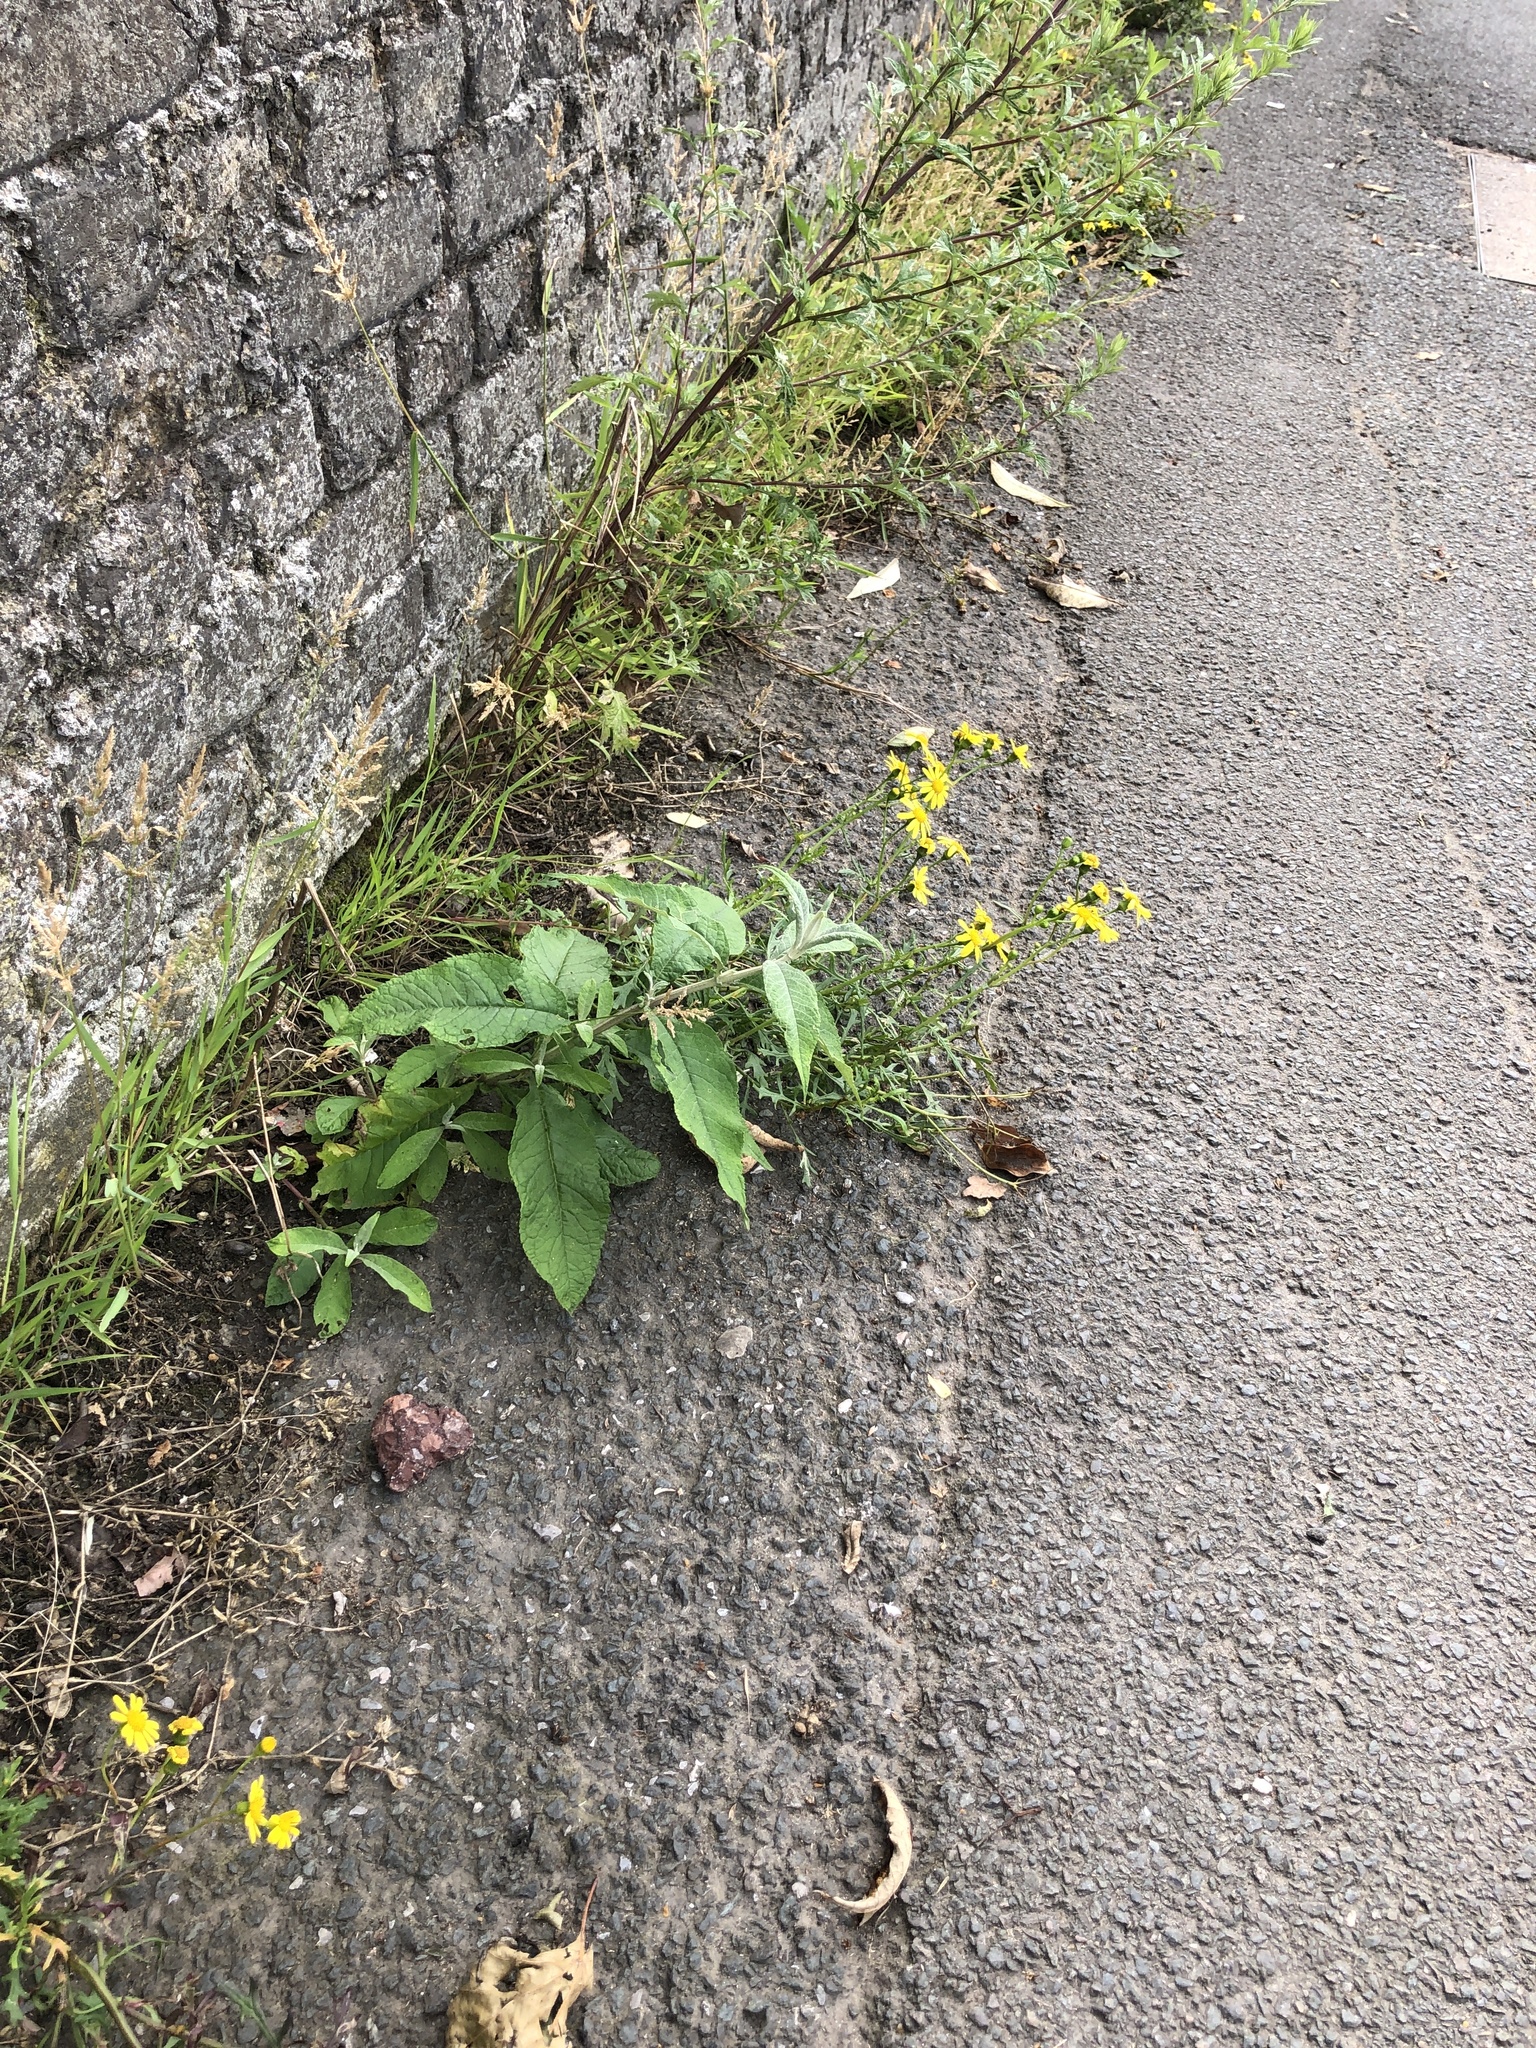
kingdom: Plantae
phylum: Tracheophyta
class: Magnoliopsida
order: Asterales
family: Asteraceae
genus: Senecio
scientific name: Senecio squalidus
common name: Oxford ragwort
